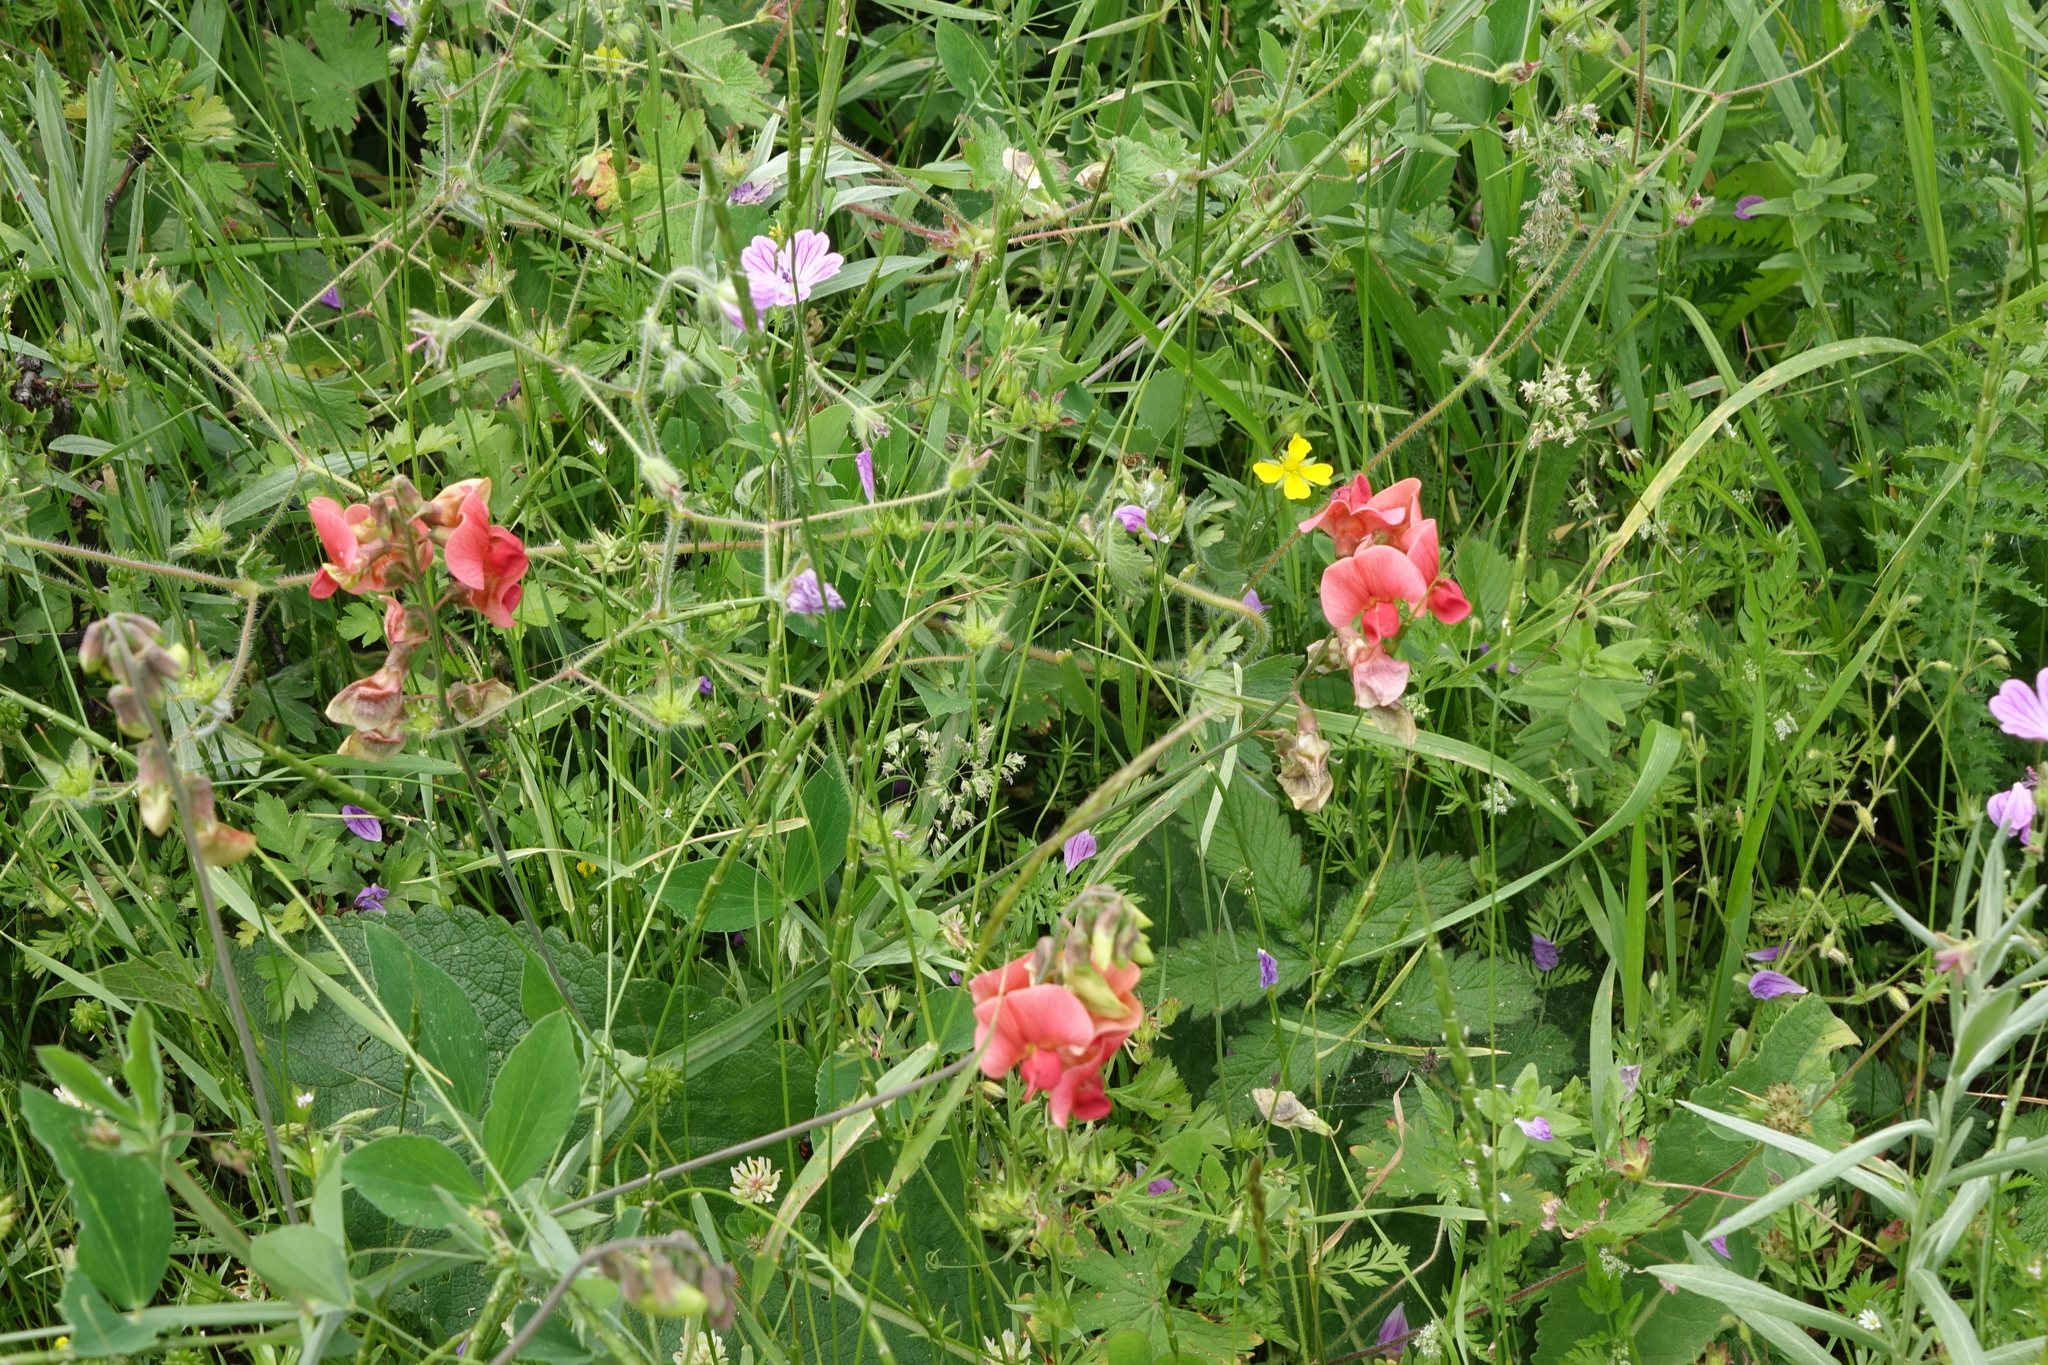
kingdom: Plantae
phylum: Tracheophyta
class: Magnoliopsida
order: Fabales
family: Fabaceae
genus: Lathyrus
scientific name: Lathyrus miniatus
